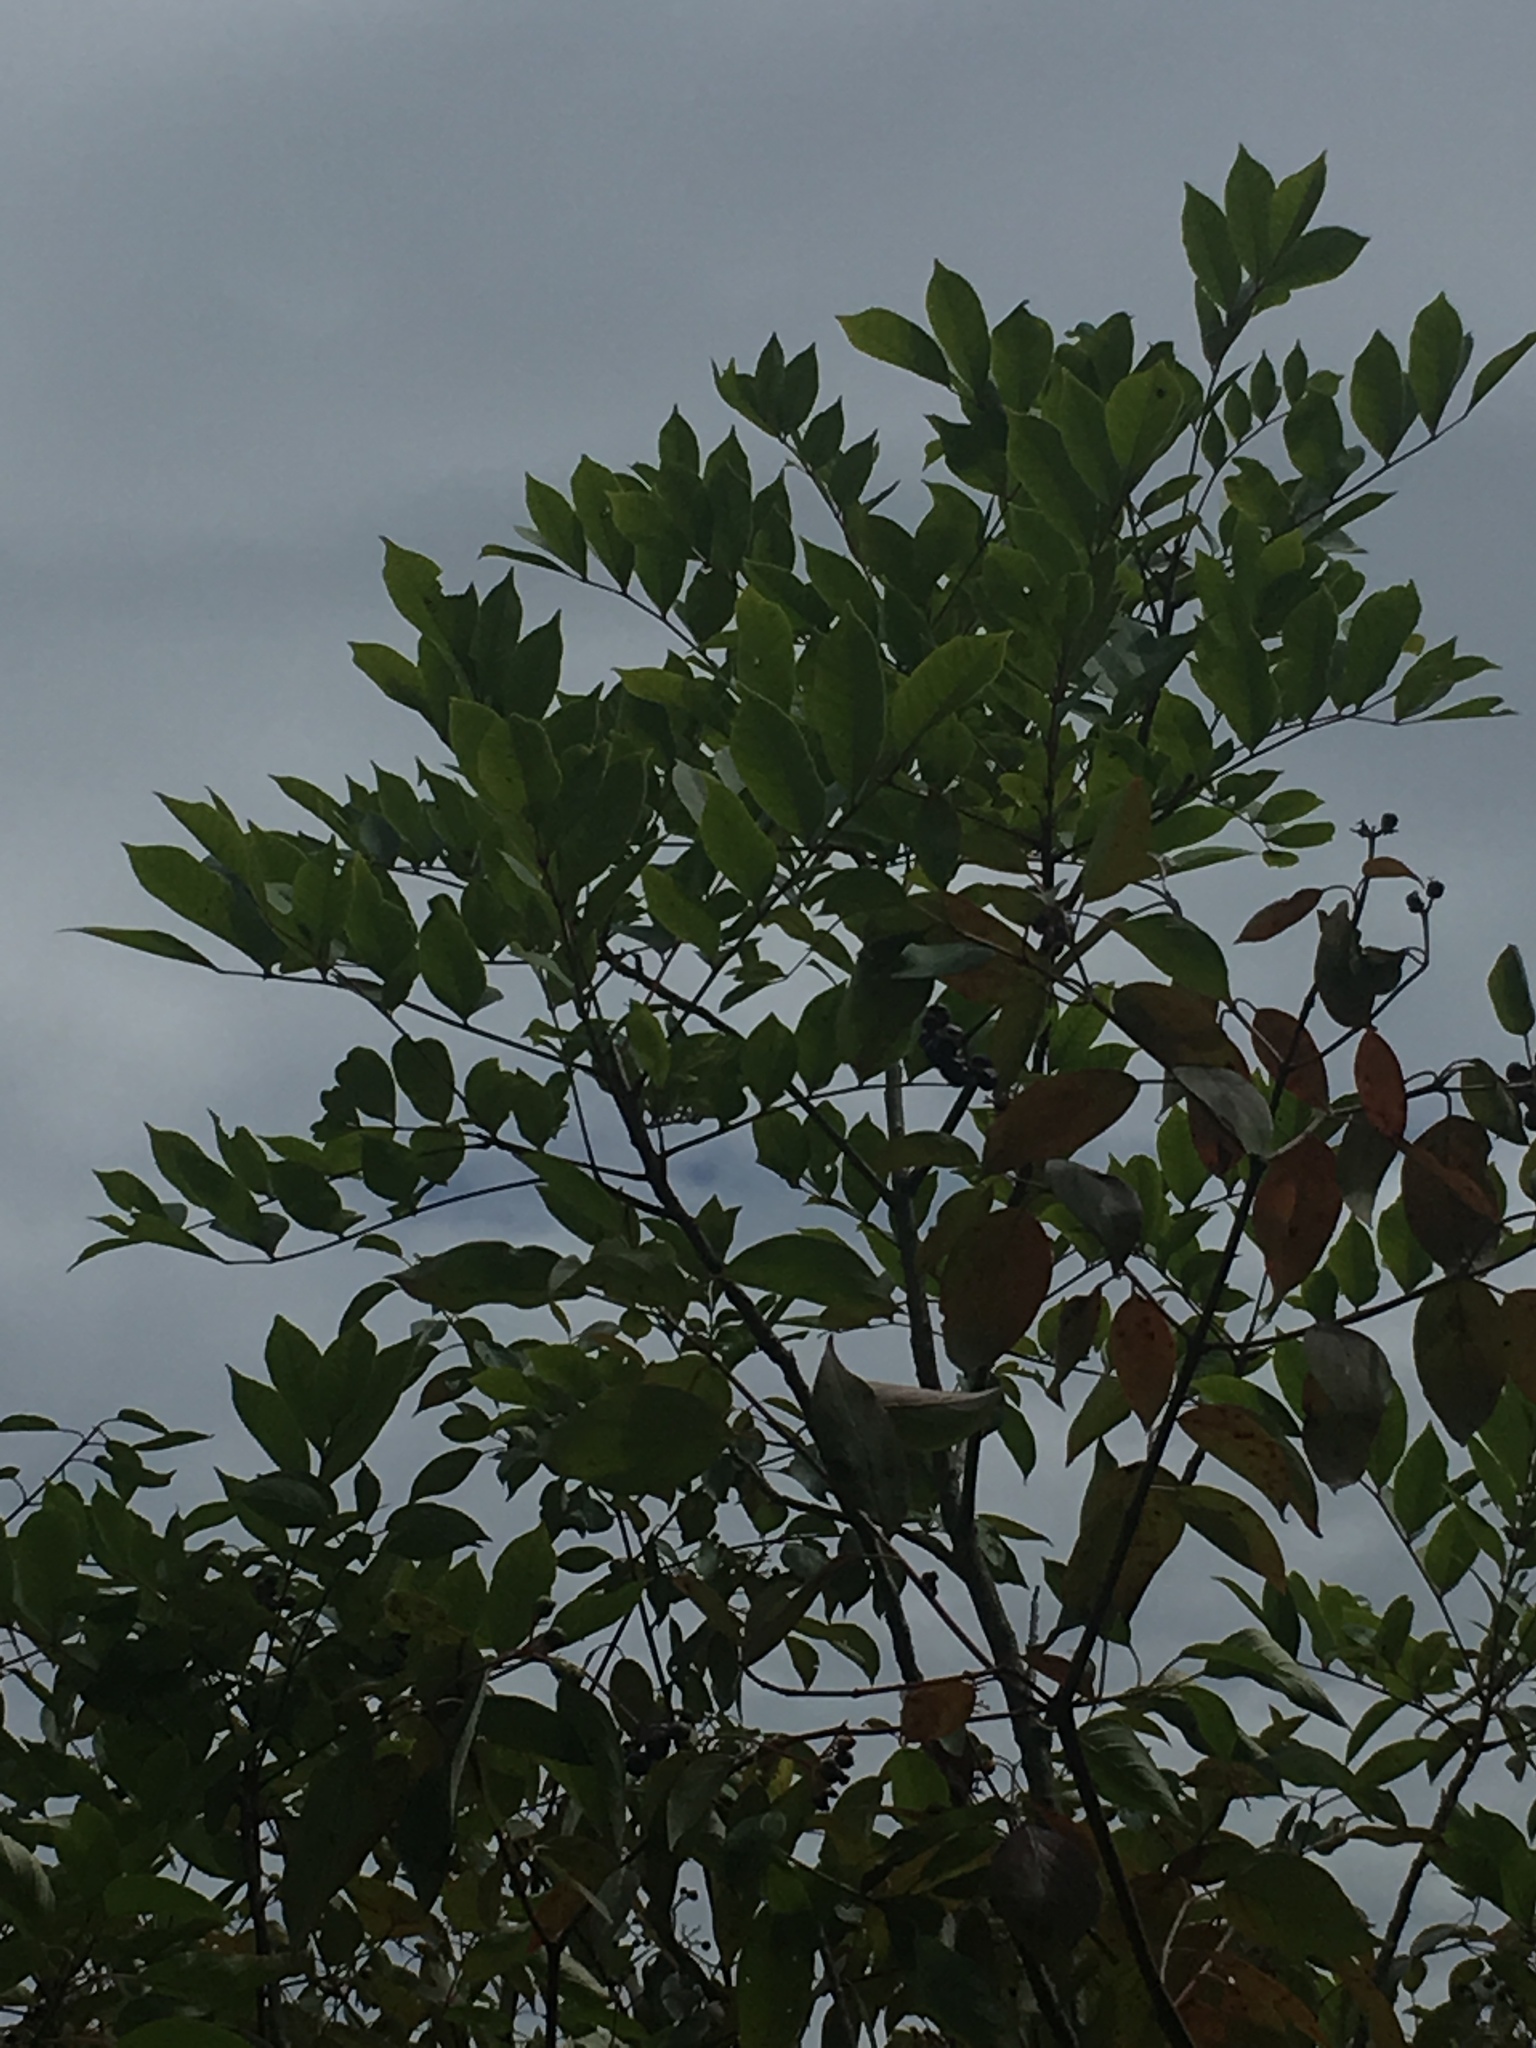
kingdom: Plantae
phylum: Tracheophyta
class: Magnoliopsida
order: Sapindales
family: Anacardiaceae
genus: Toxicodendron
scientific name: Toxicodendron vernix
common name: Poison sumac
